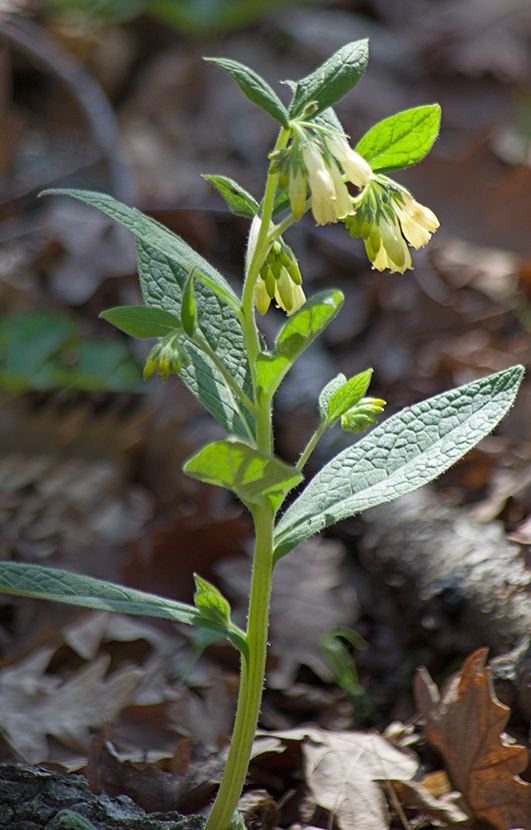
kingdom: Plantae
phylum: Tracheophyta
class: Magnoliopsida
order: Boraginales
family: Boraginaceae
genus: Symphytum
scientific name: Symphytum tuberosum
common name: Tuberous comfrey
